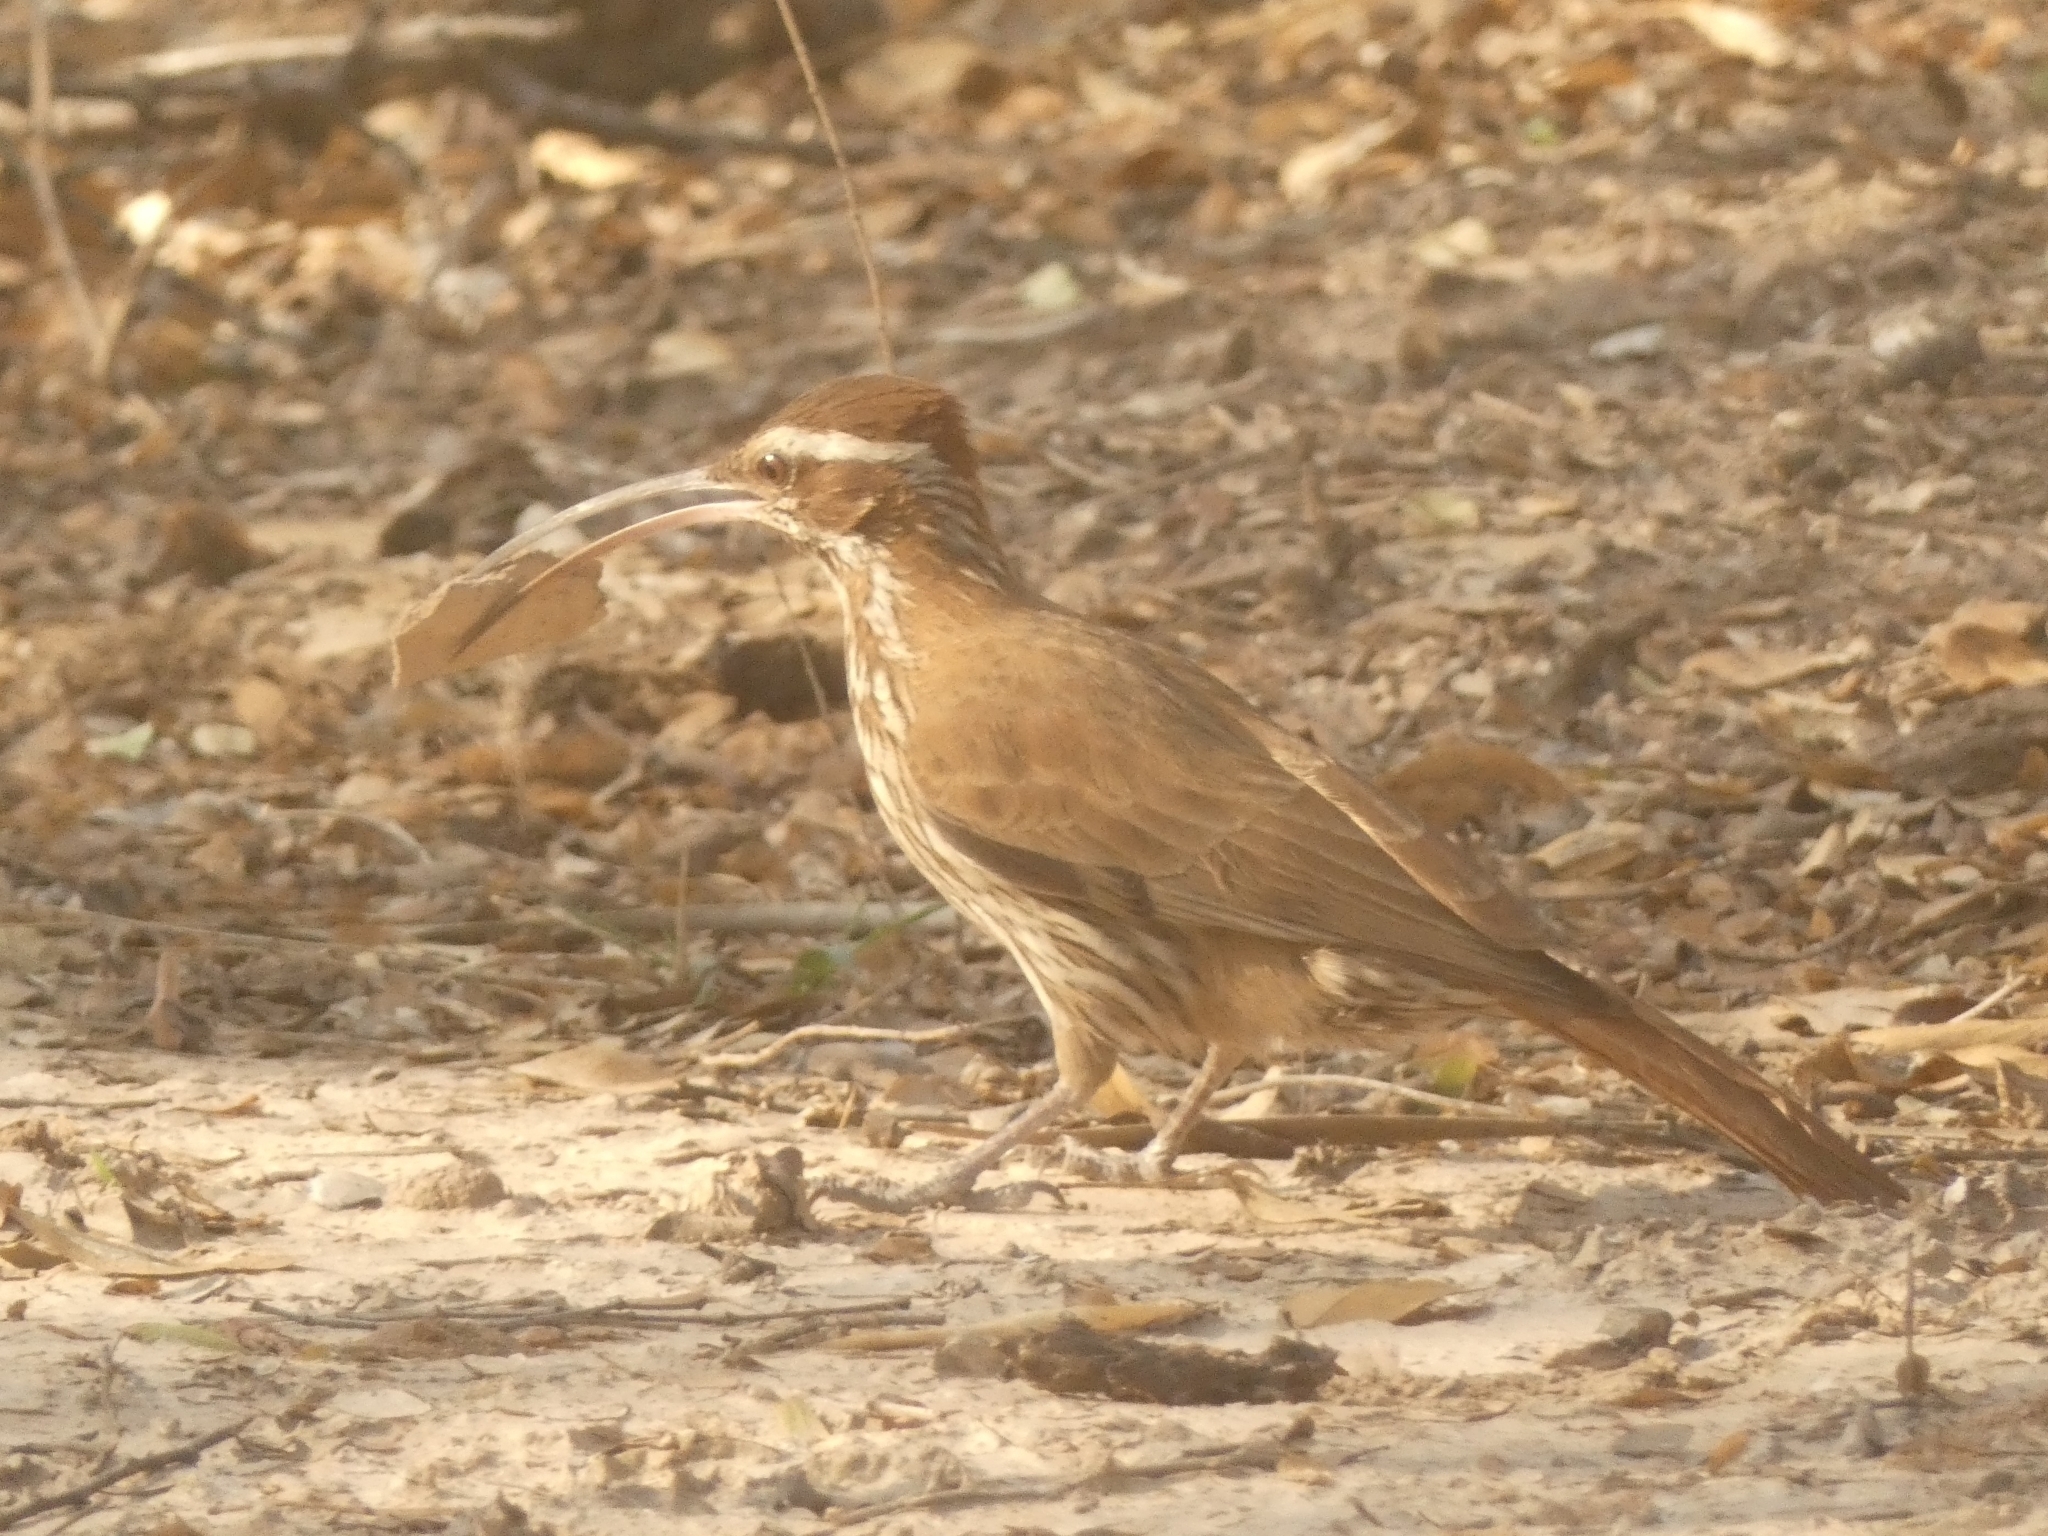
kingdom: Animalia
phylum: Chordata
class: Aves
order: Passeriformes
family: Furnariidae
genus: Drymornis
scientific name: Drymornis bridgesii
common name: Scimitar-billed woodcreeper
